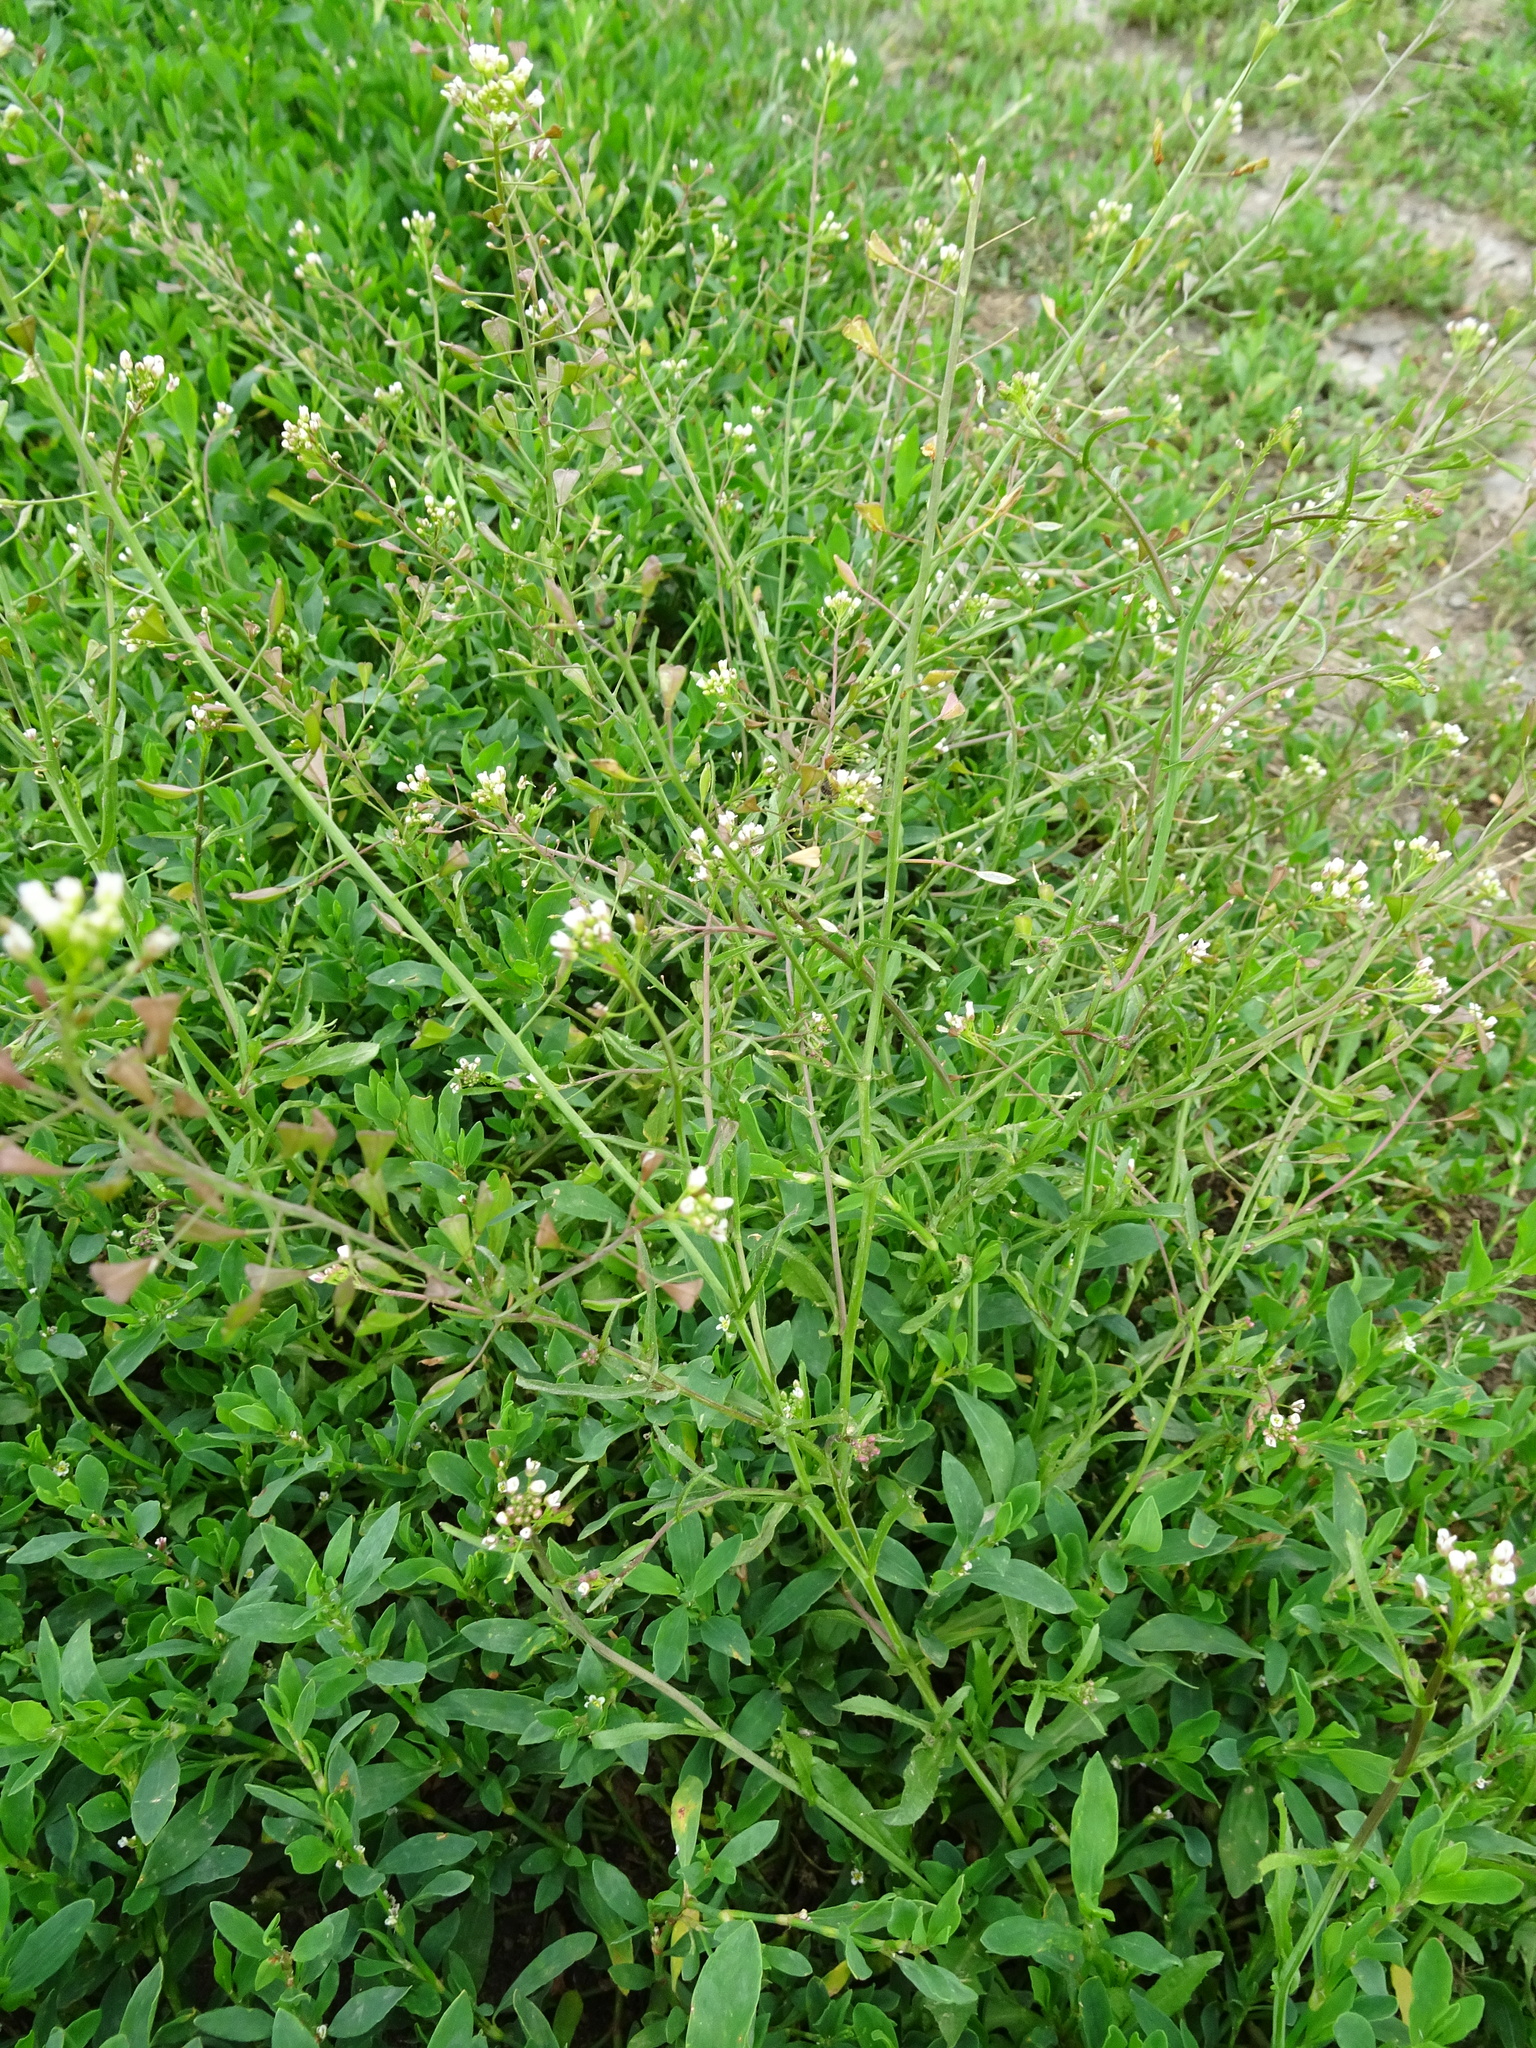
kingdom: Plantae
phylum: Tracheophyta
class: Magnoliopsida
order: Brassicales
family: Brassicaceae
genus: Capsella
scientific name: Capsella bursa-pastoris
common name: Shepherd's purse
